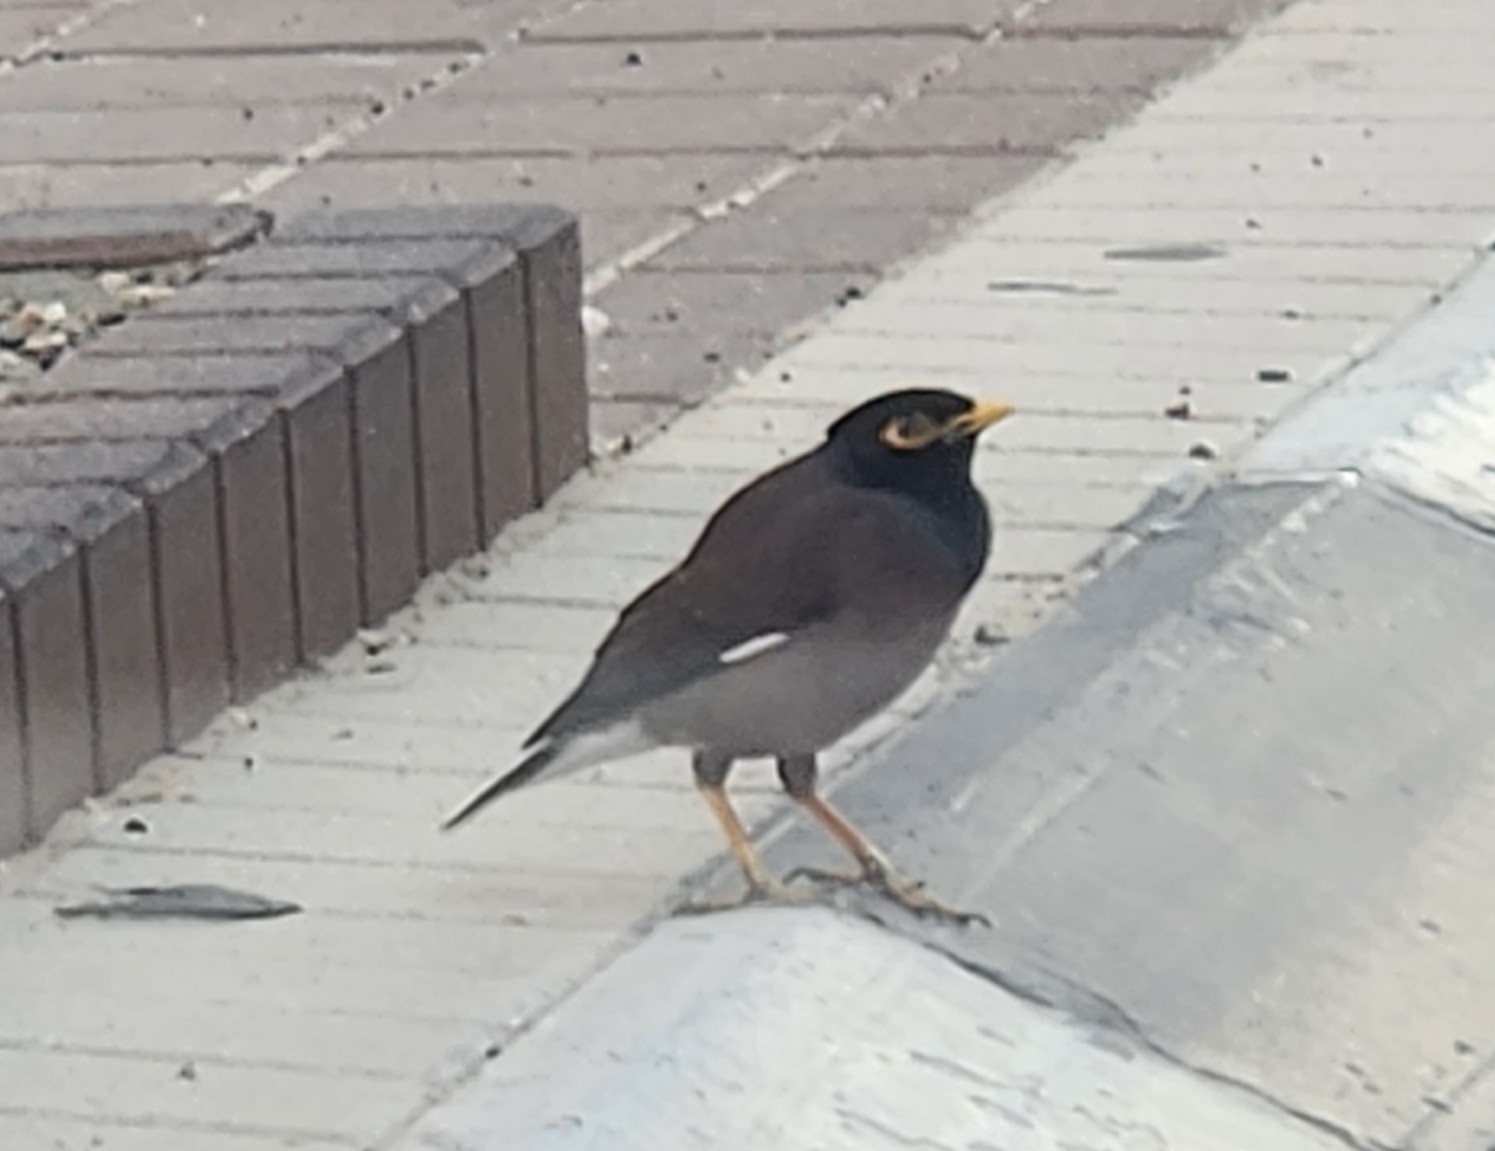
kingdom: Animalia
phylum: Chordata
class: Aves
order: Passeriformes
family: Sturnidae
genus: Acridotheres
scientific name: Acridotheres tristis
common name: Common myna
